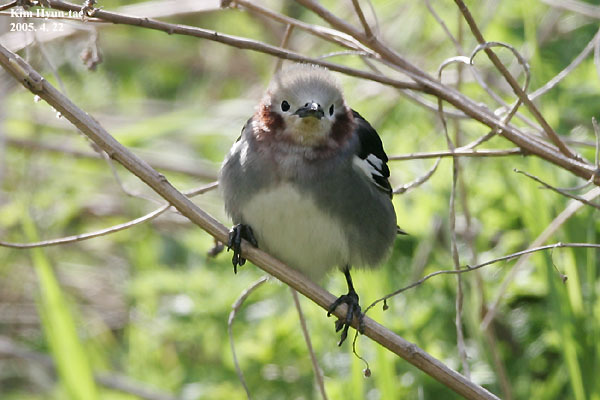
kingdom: Animalia
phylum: Chordata
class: Aves
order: Passeriformes
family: Sturnidae
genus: Agropsar
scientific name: Agropsar philippensis
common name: Chestnut-cheeked starling
